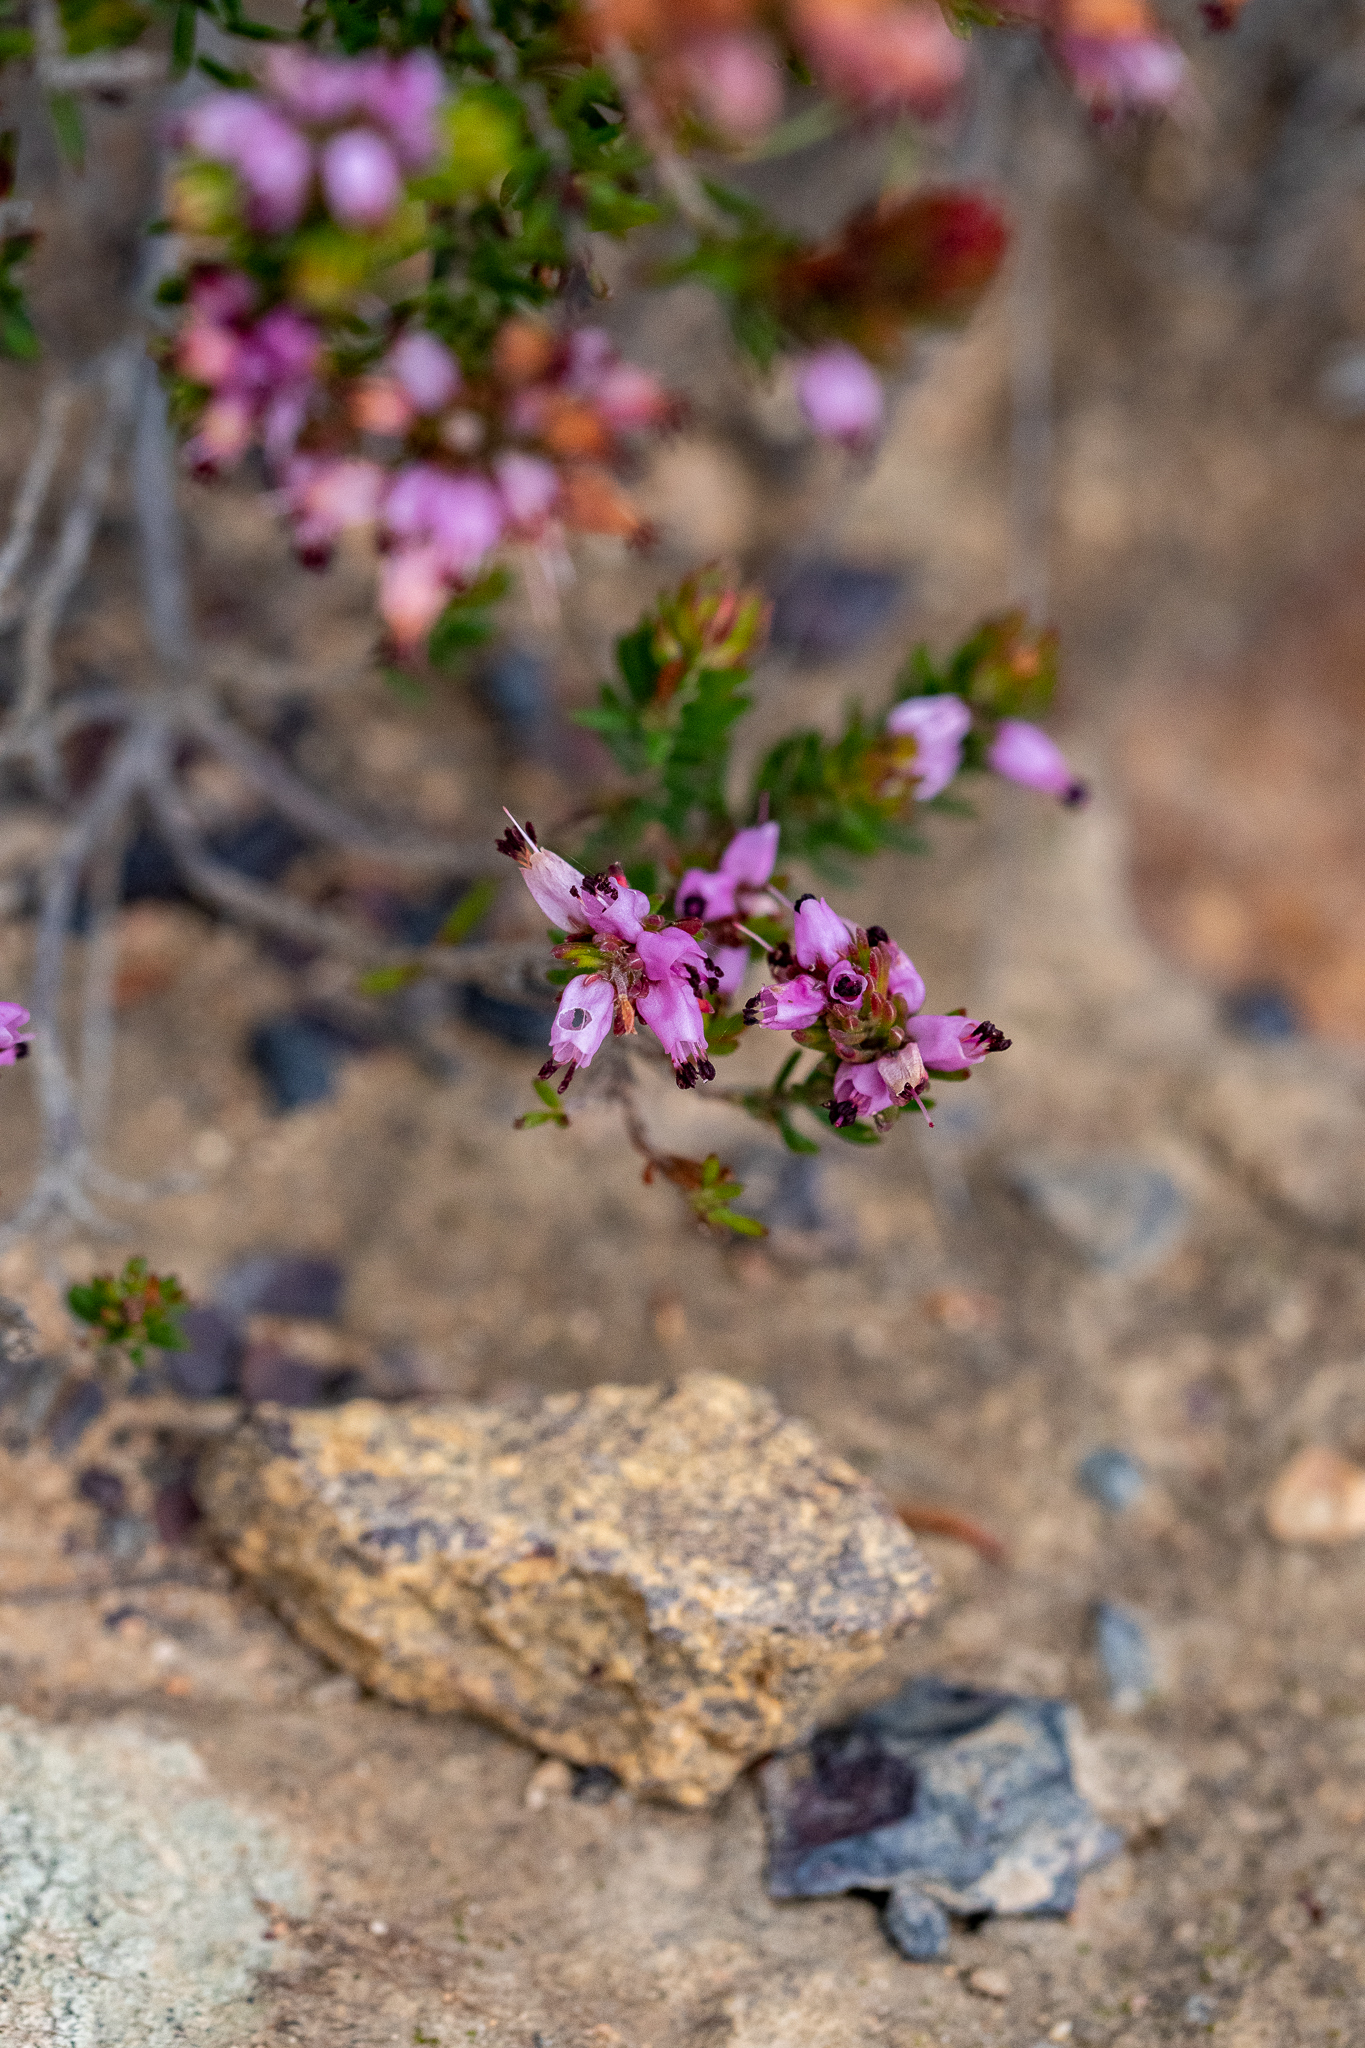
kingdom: Plantae
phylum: Tracheophyta
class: Magnoliopsida
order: Ericales
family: Ericaceae
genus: Erica
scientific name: Erica nudiflora
